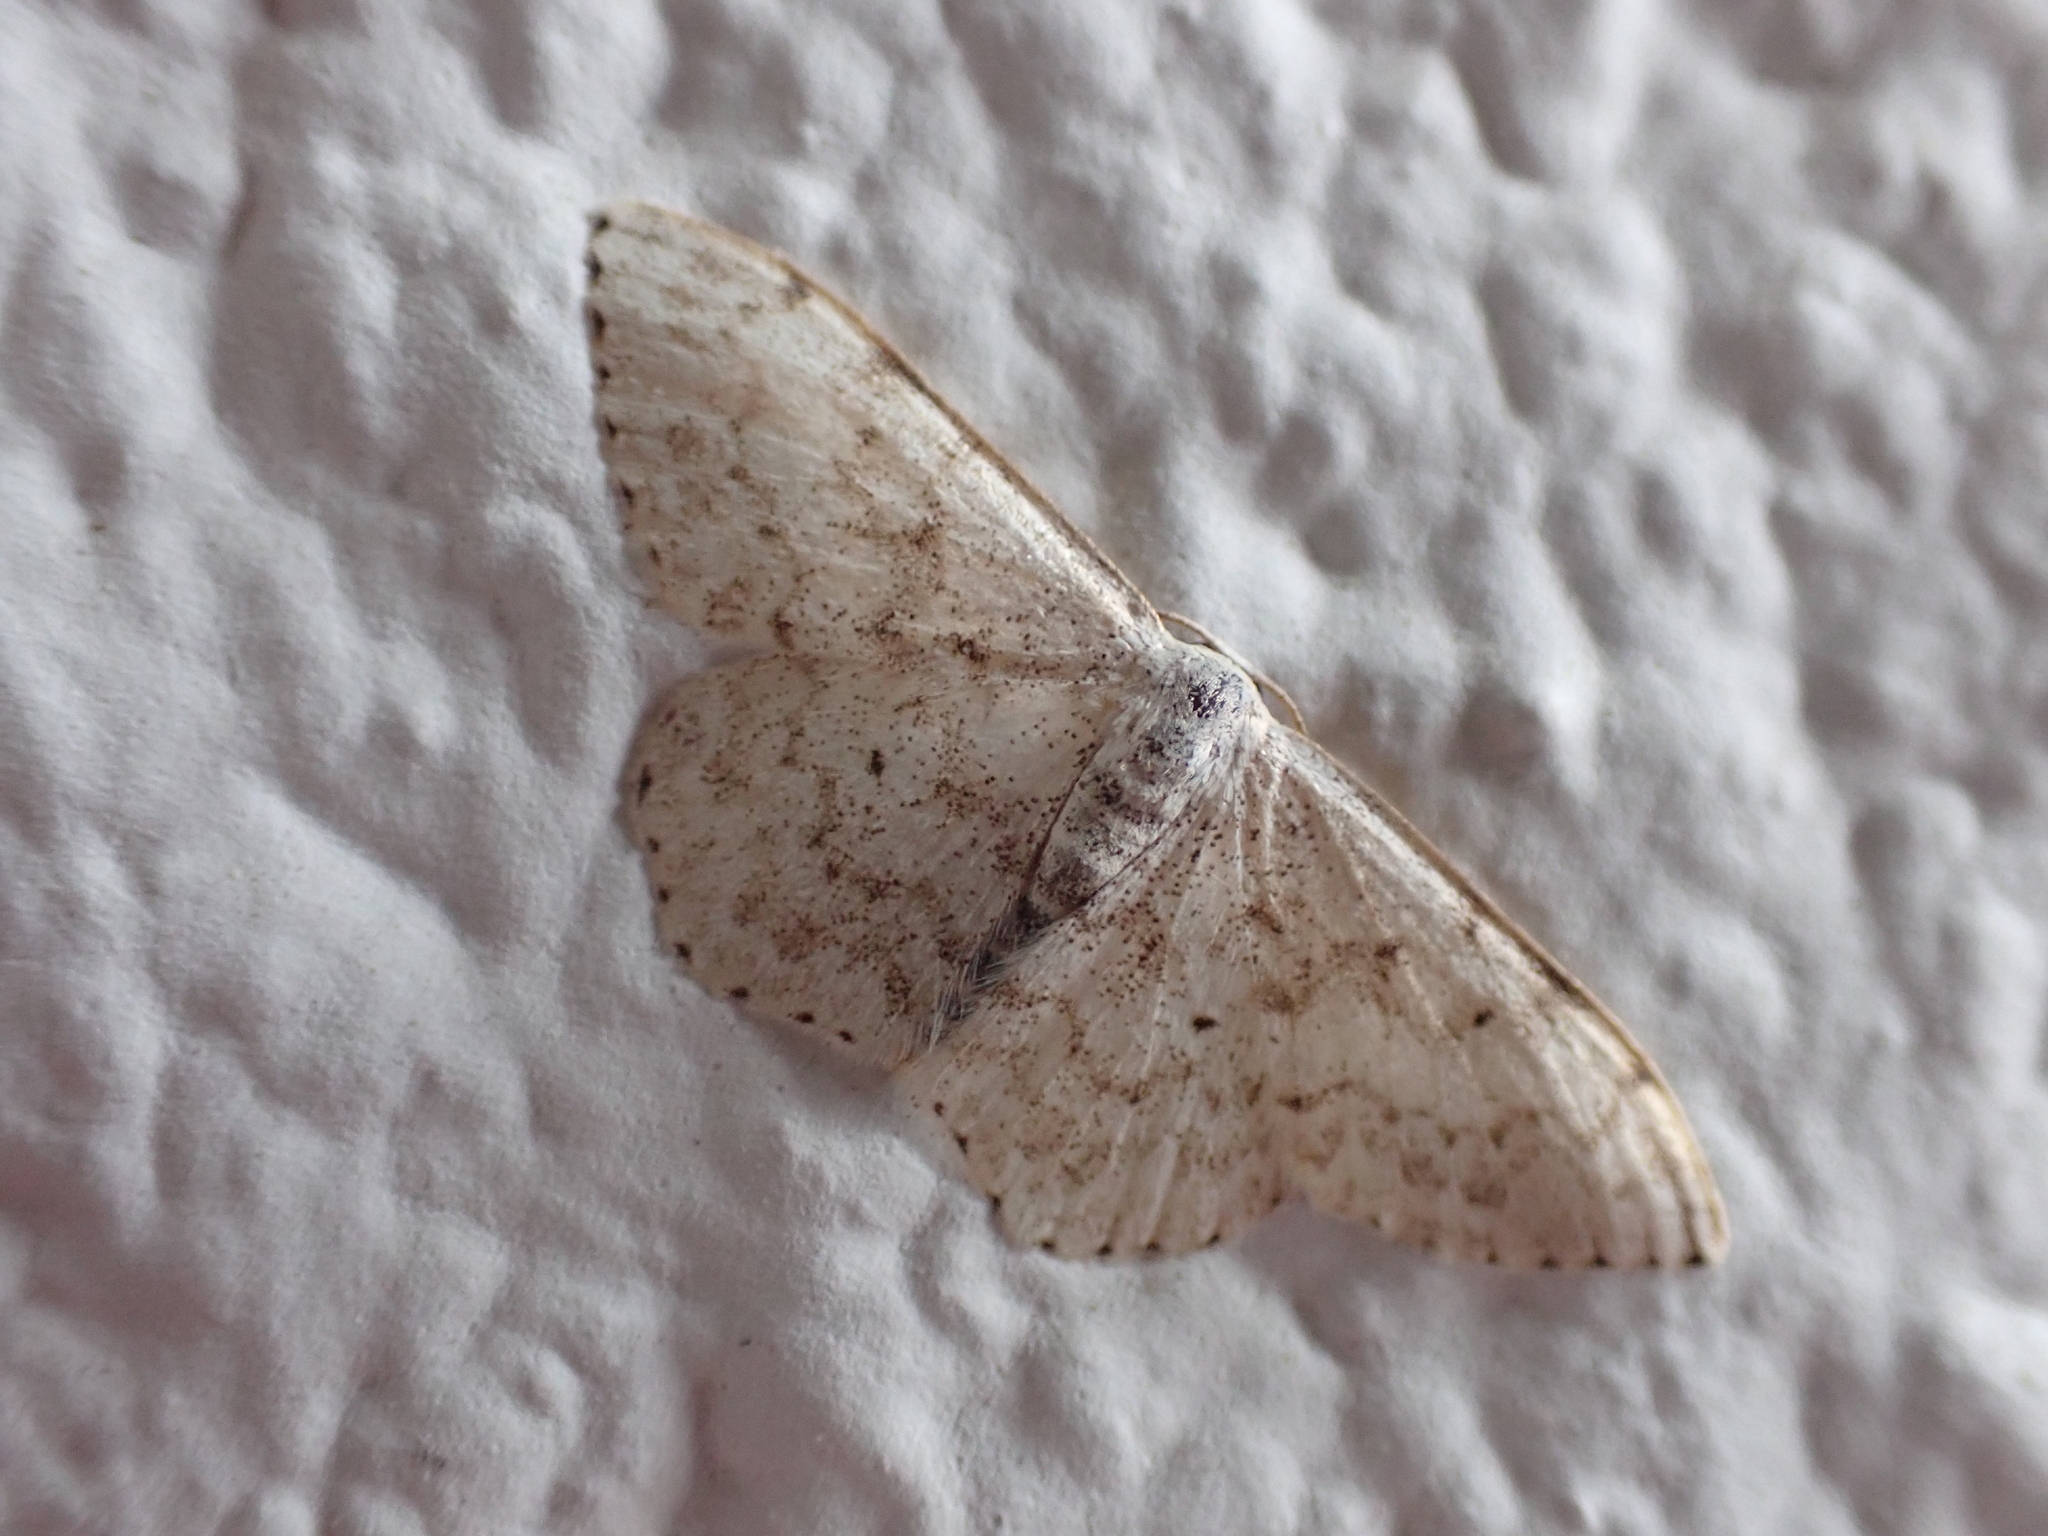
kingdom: Animalia
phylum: Arthropoda
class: Insecta
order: Lepidoptera
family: Geometridae
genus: Scopula
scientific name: Scopula marginepunctata
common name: Mullein wave
